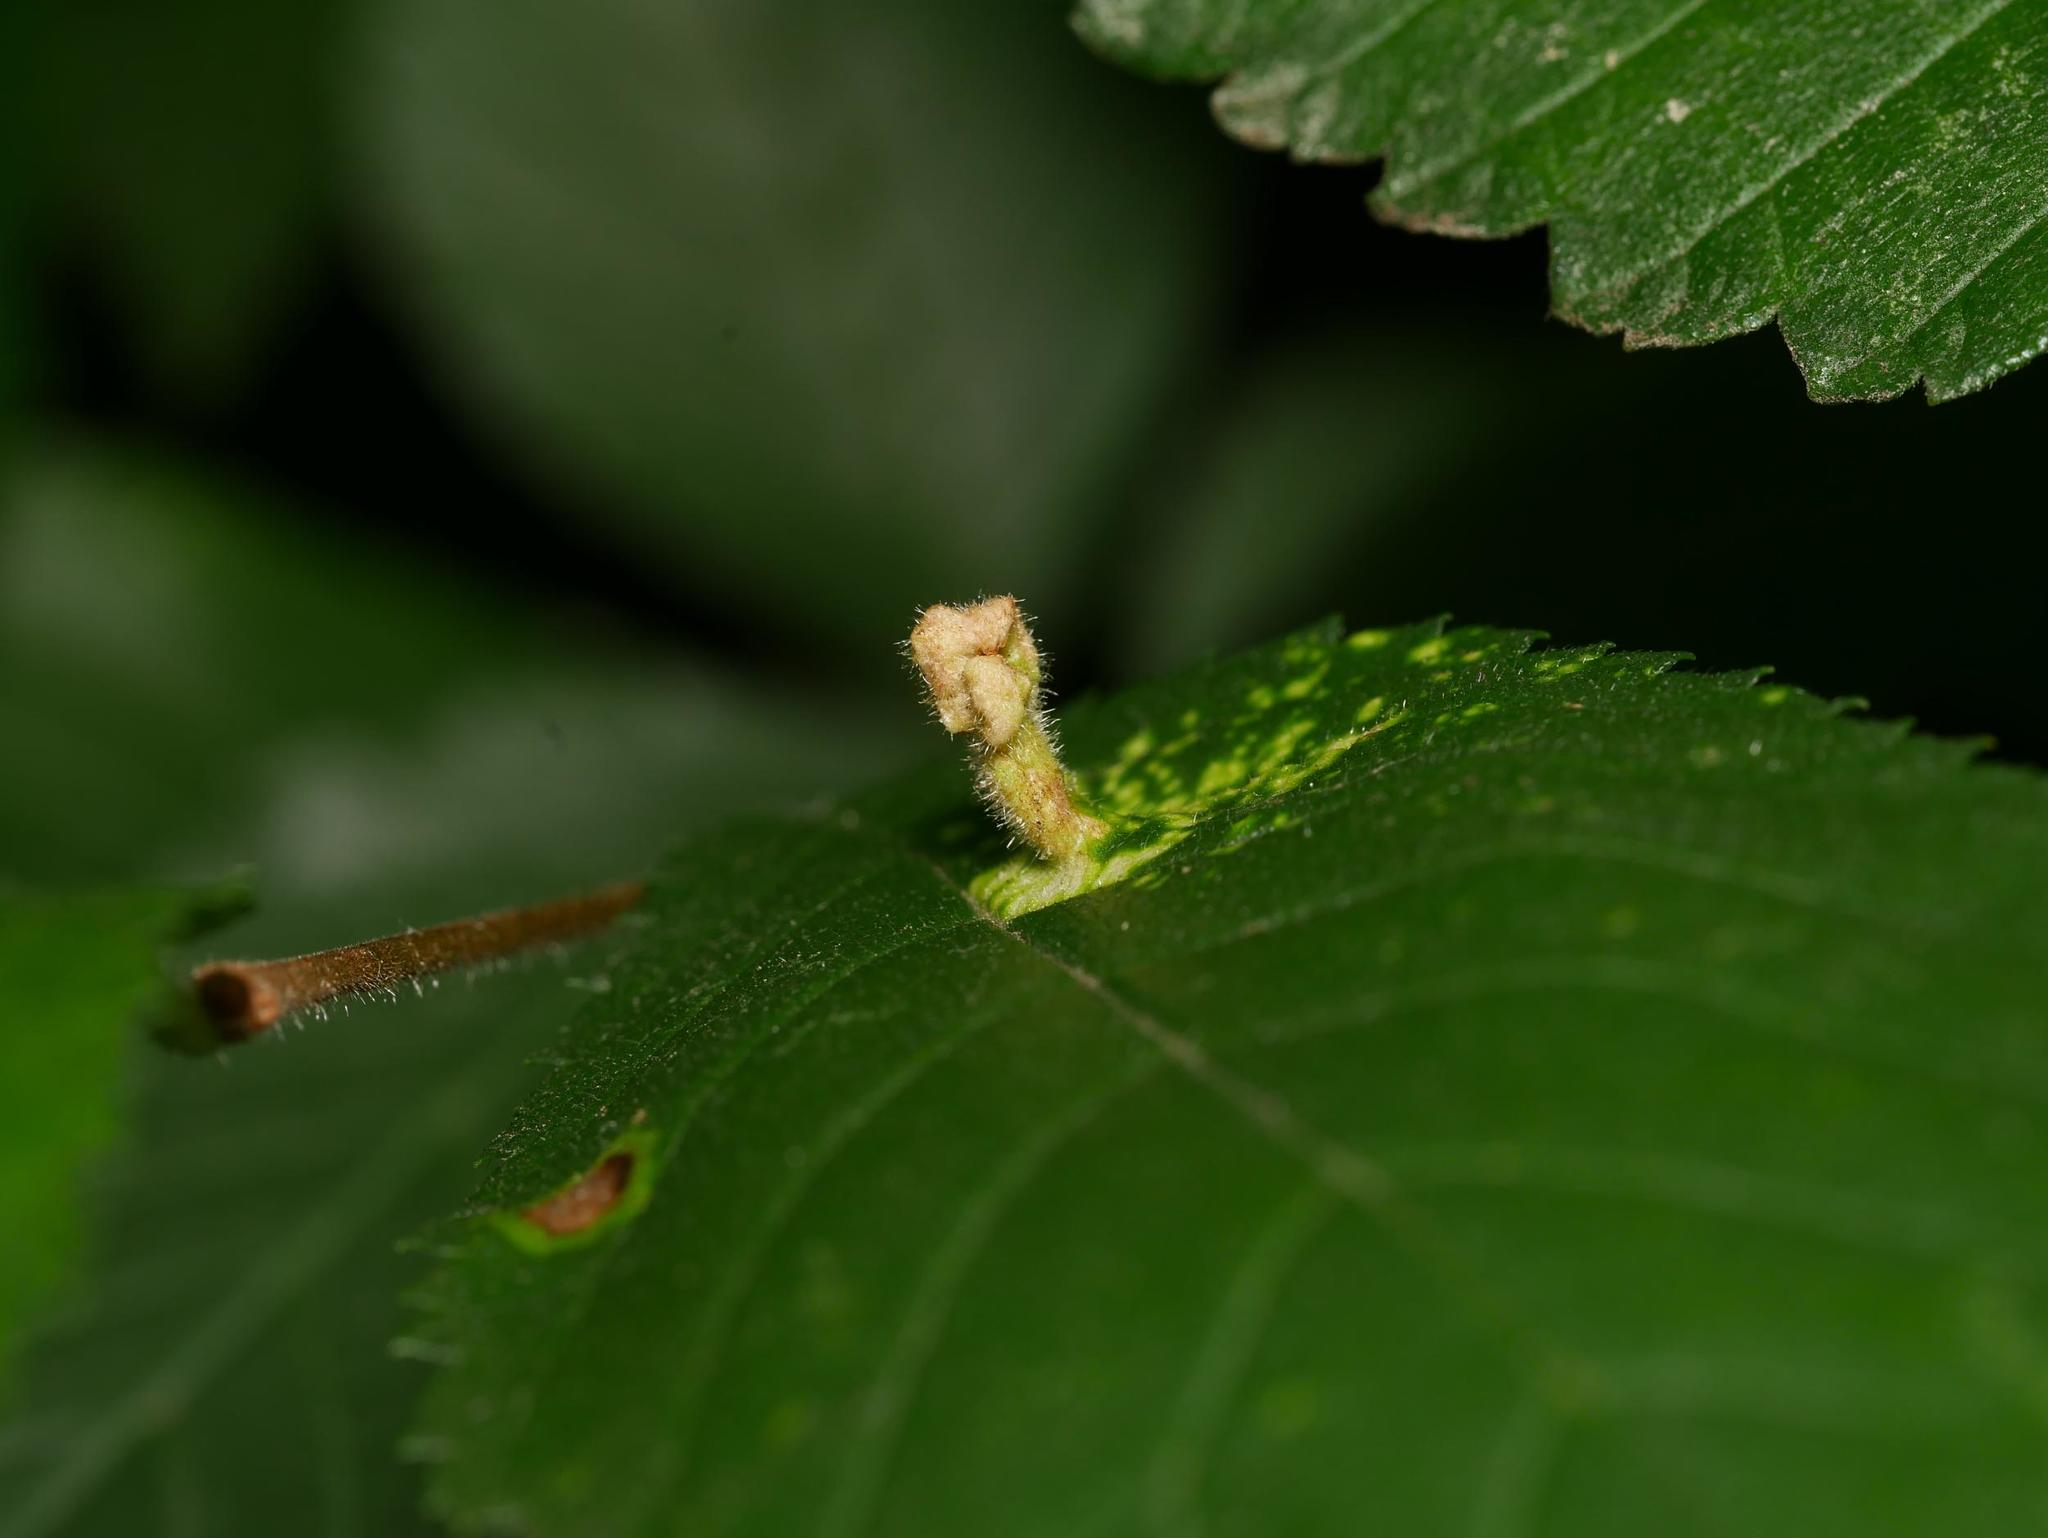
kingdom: Animalia
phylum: Arthropoda
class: Insecta
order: Hemiptera
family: Aphididae
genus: Tetraneura
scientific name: Tetraneura nigriabdominalis
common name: Aphid
